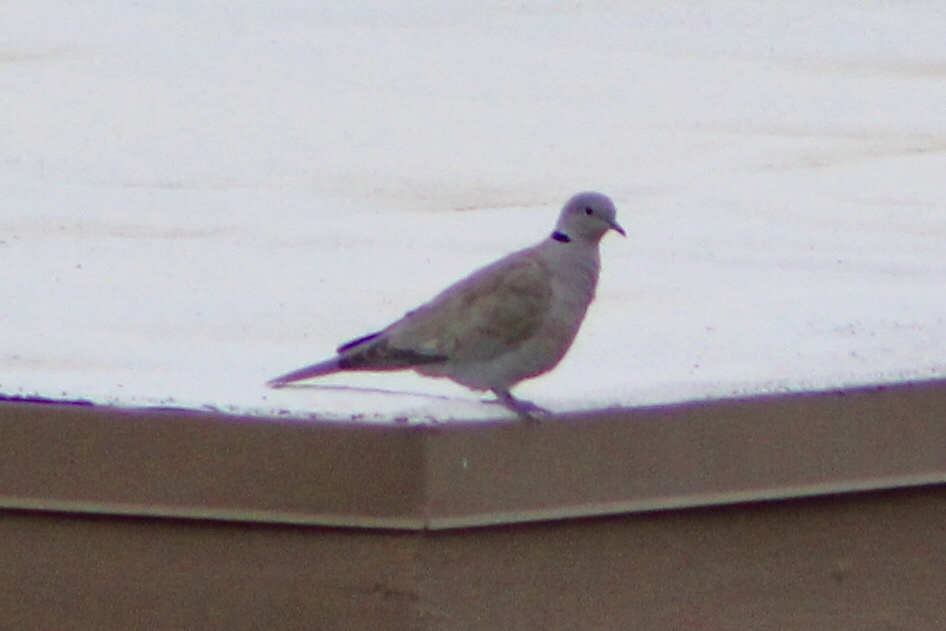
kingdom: Animalia
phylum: Chordata
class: Aves
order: Columbiformes
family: Columbidae
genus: Streptopelia
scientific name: Streptopelia decaocto
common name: Eurasian collared dove
